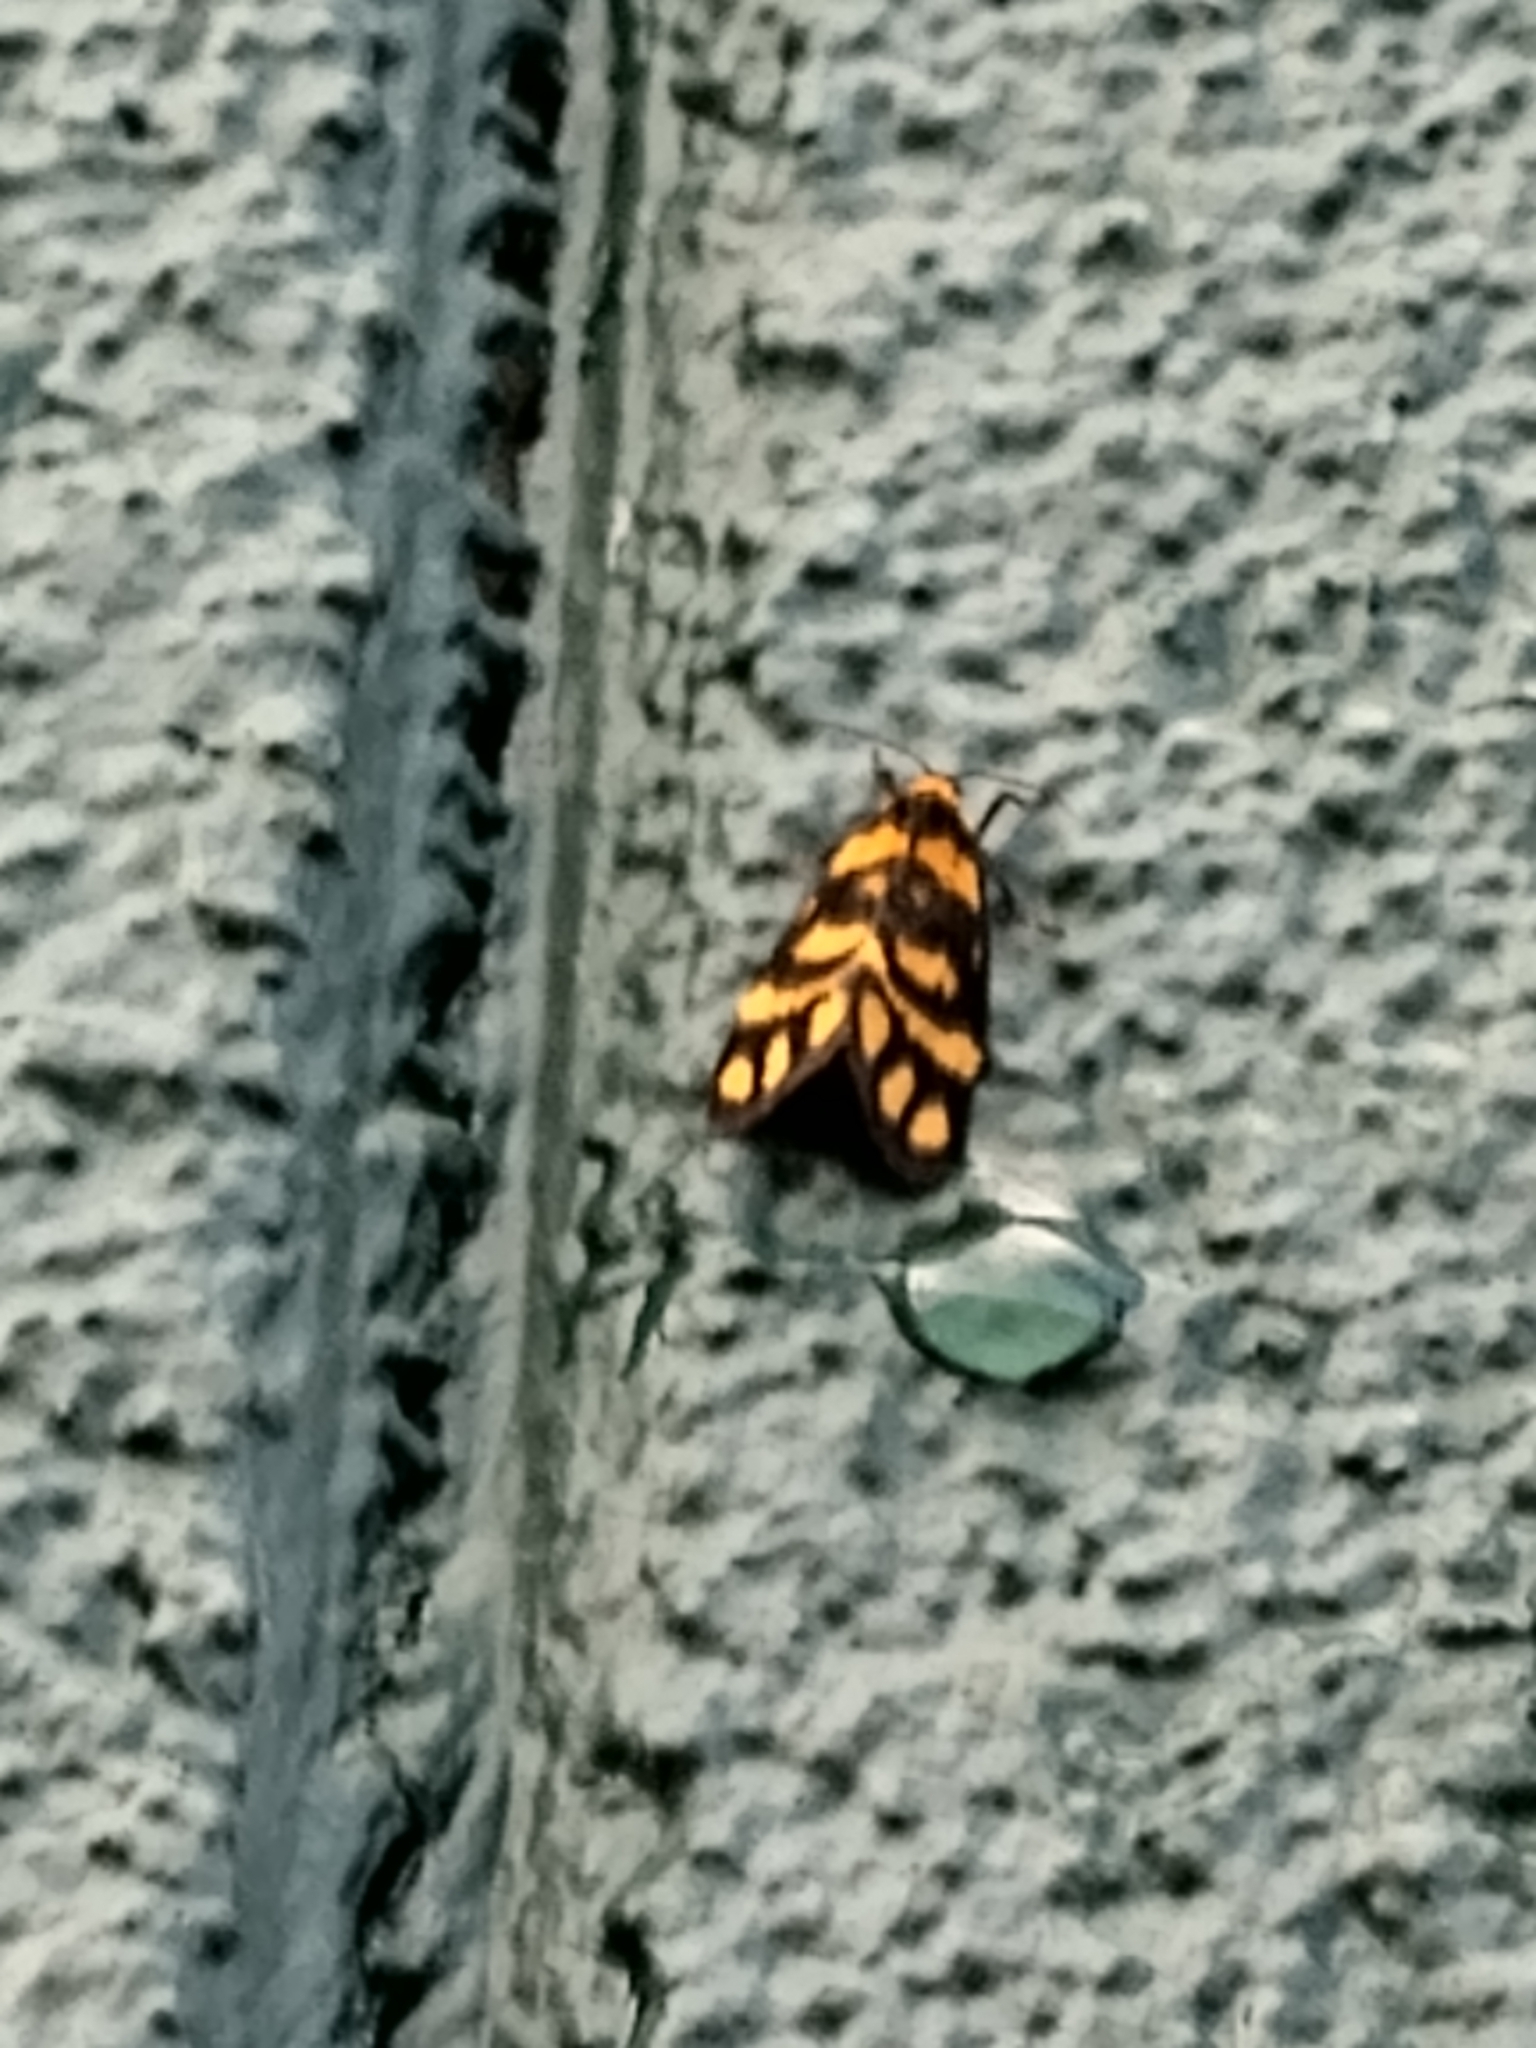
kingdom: Animalia
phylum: Arthropoda
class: Insecta
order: Lepidoptera
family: Erebidae
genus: Asura
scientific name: Asura lydia
